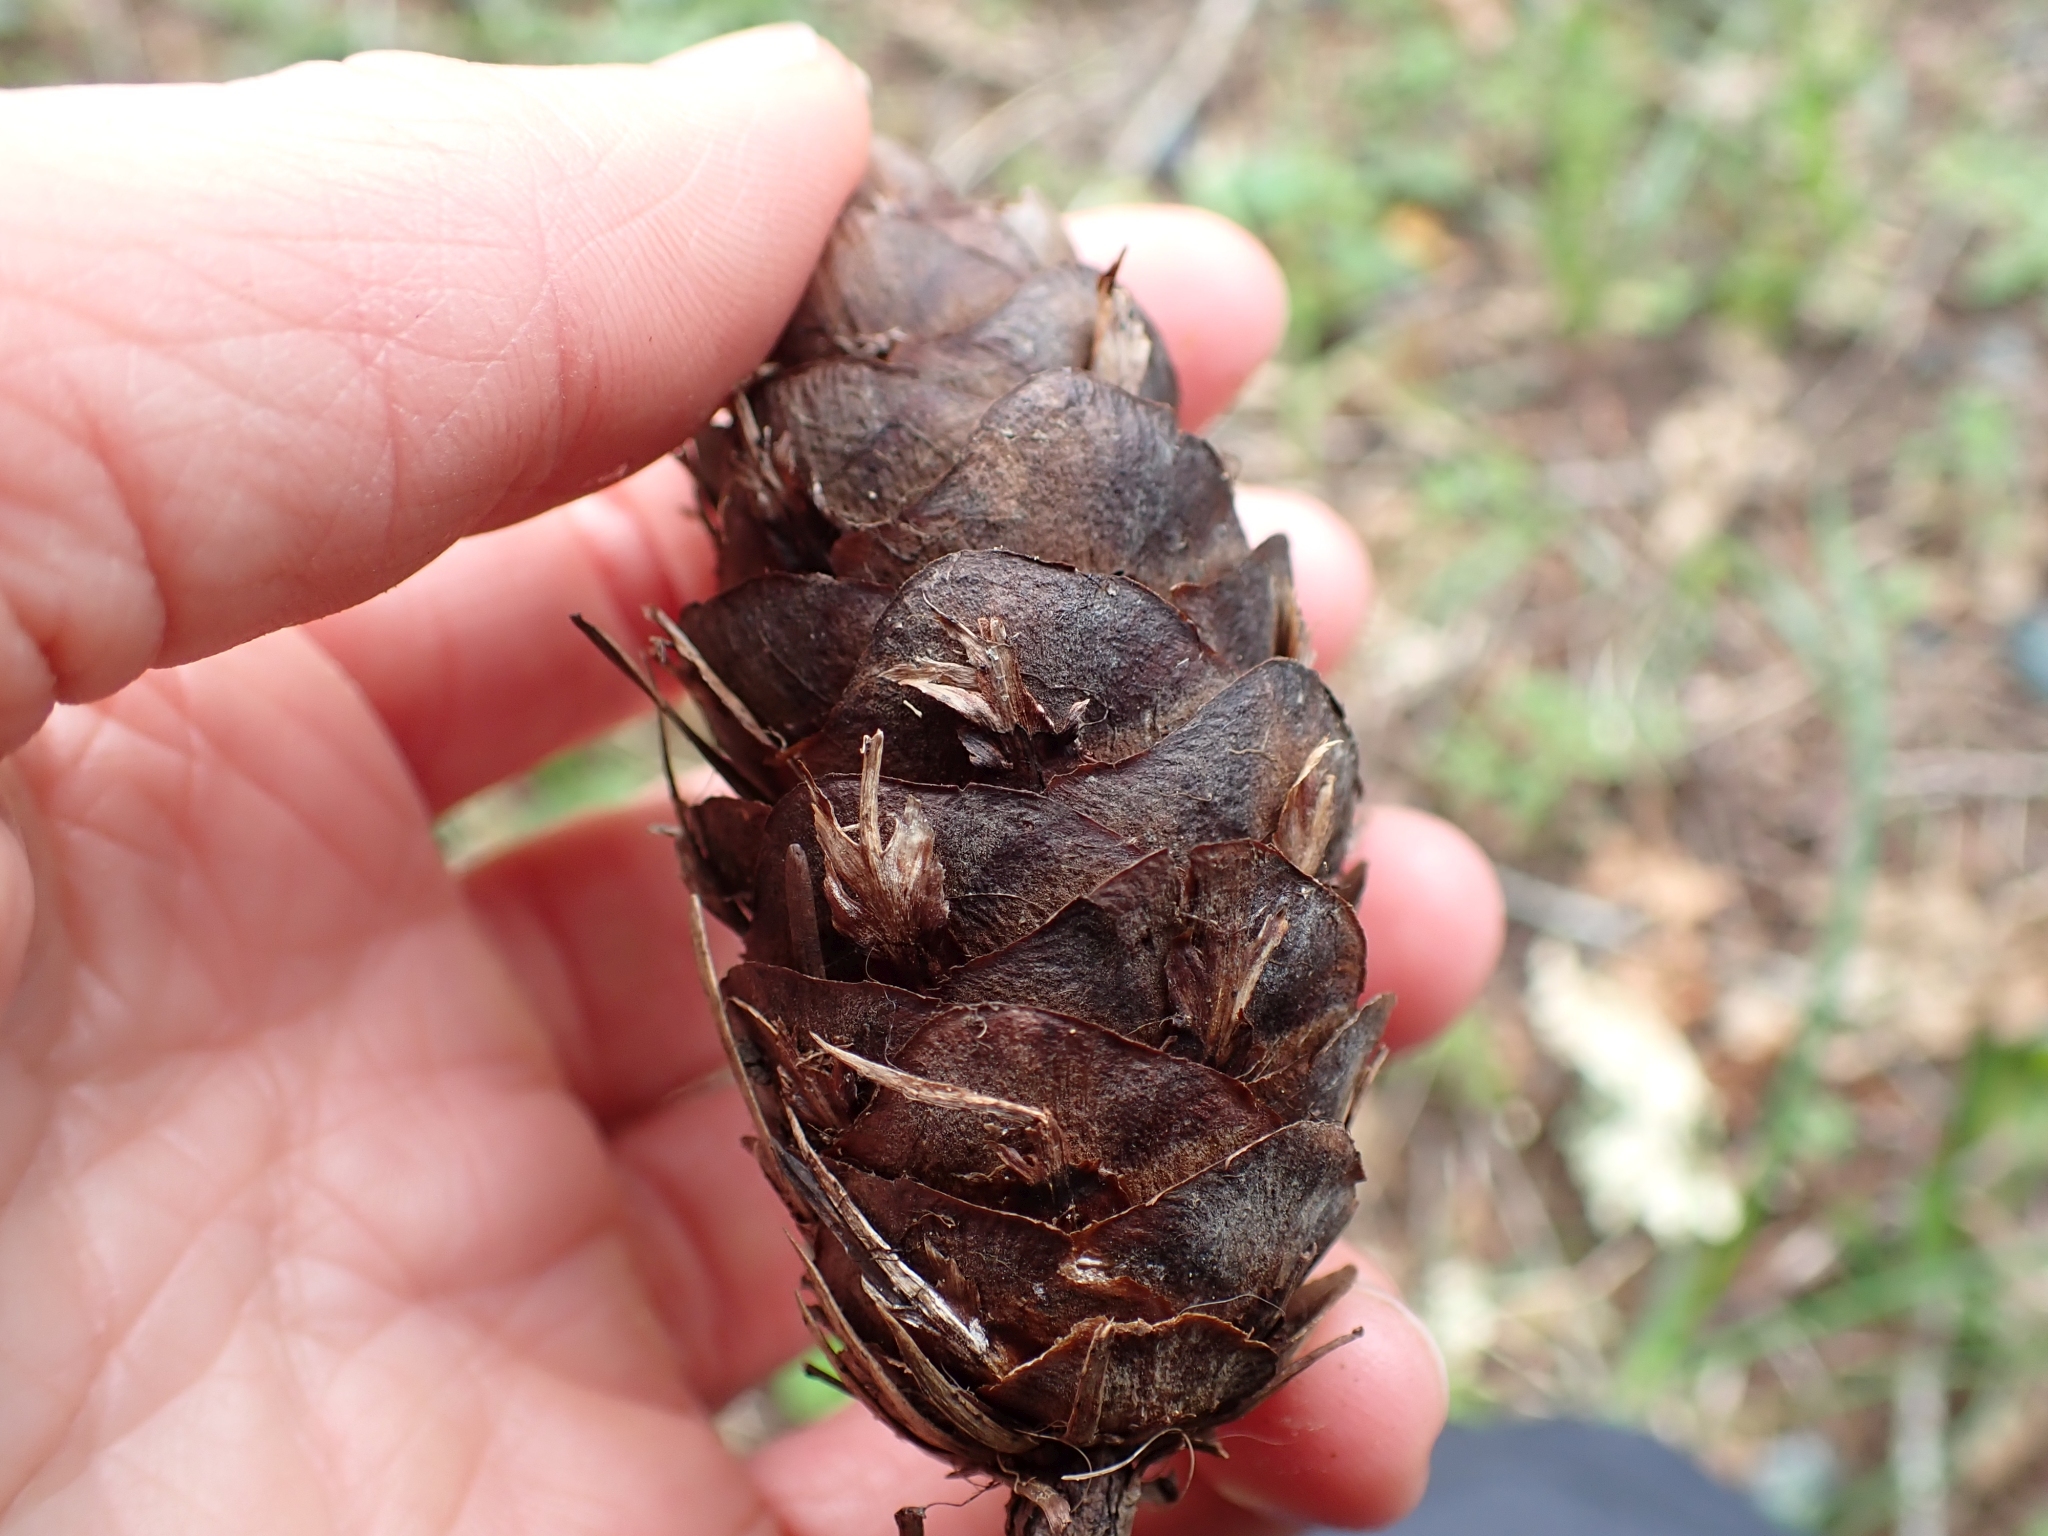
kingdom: Plantae
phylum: Tracheophyta
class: Pinopsida
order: Pinales
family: Pinaceae
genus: Pseudotsuga
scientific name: Pseudotsuga menziesii
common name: Douglas fir
